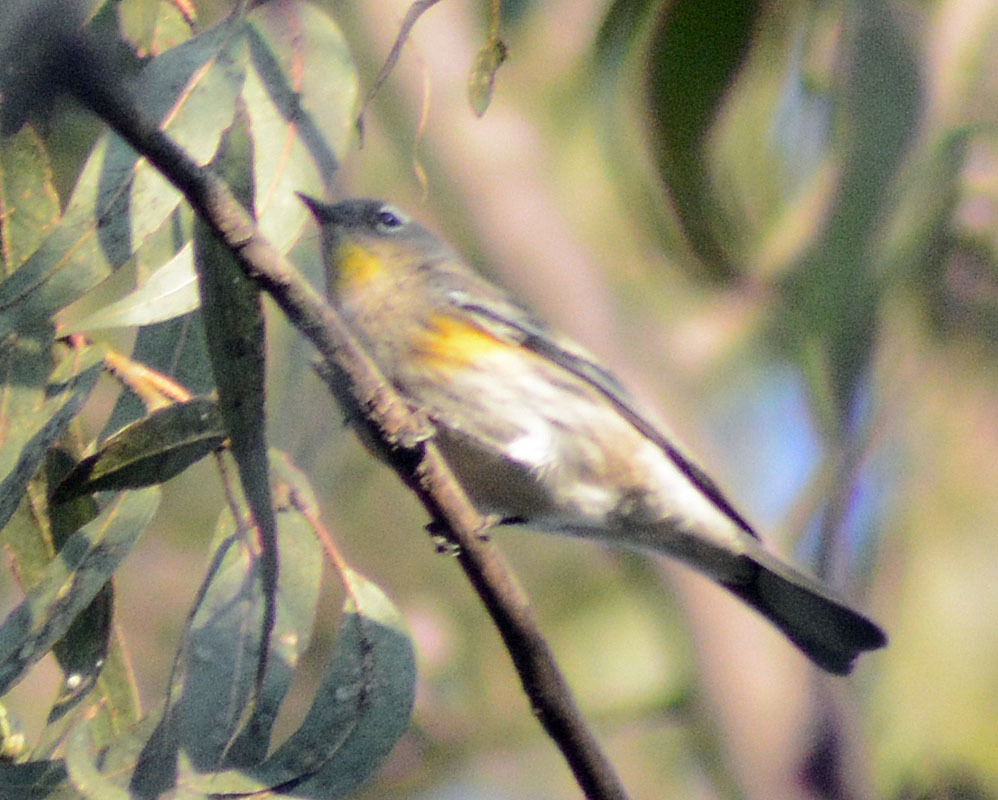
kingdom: Animalia
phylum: Chordata
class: Aves
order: Passeriformes
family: Parulidae
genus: Setophaga
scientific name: Setophaga coronata
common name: Myrtle warbler
